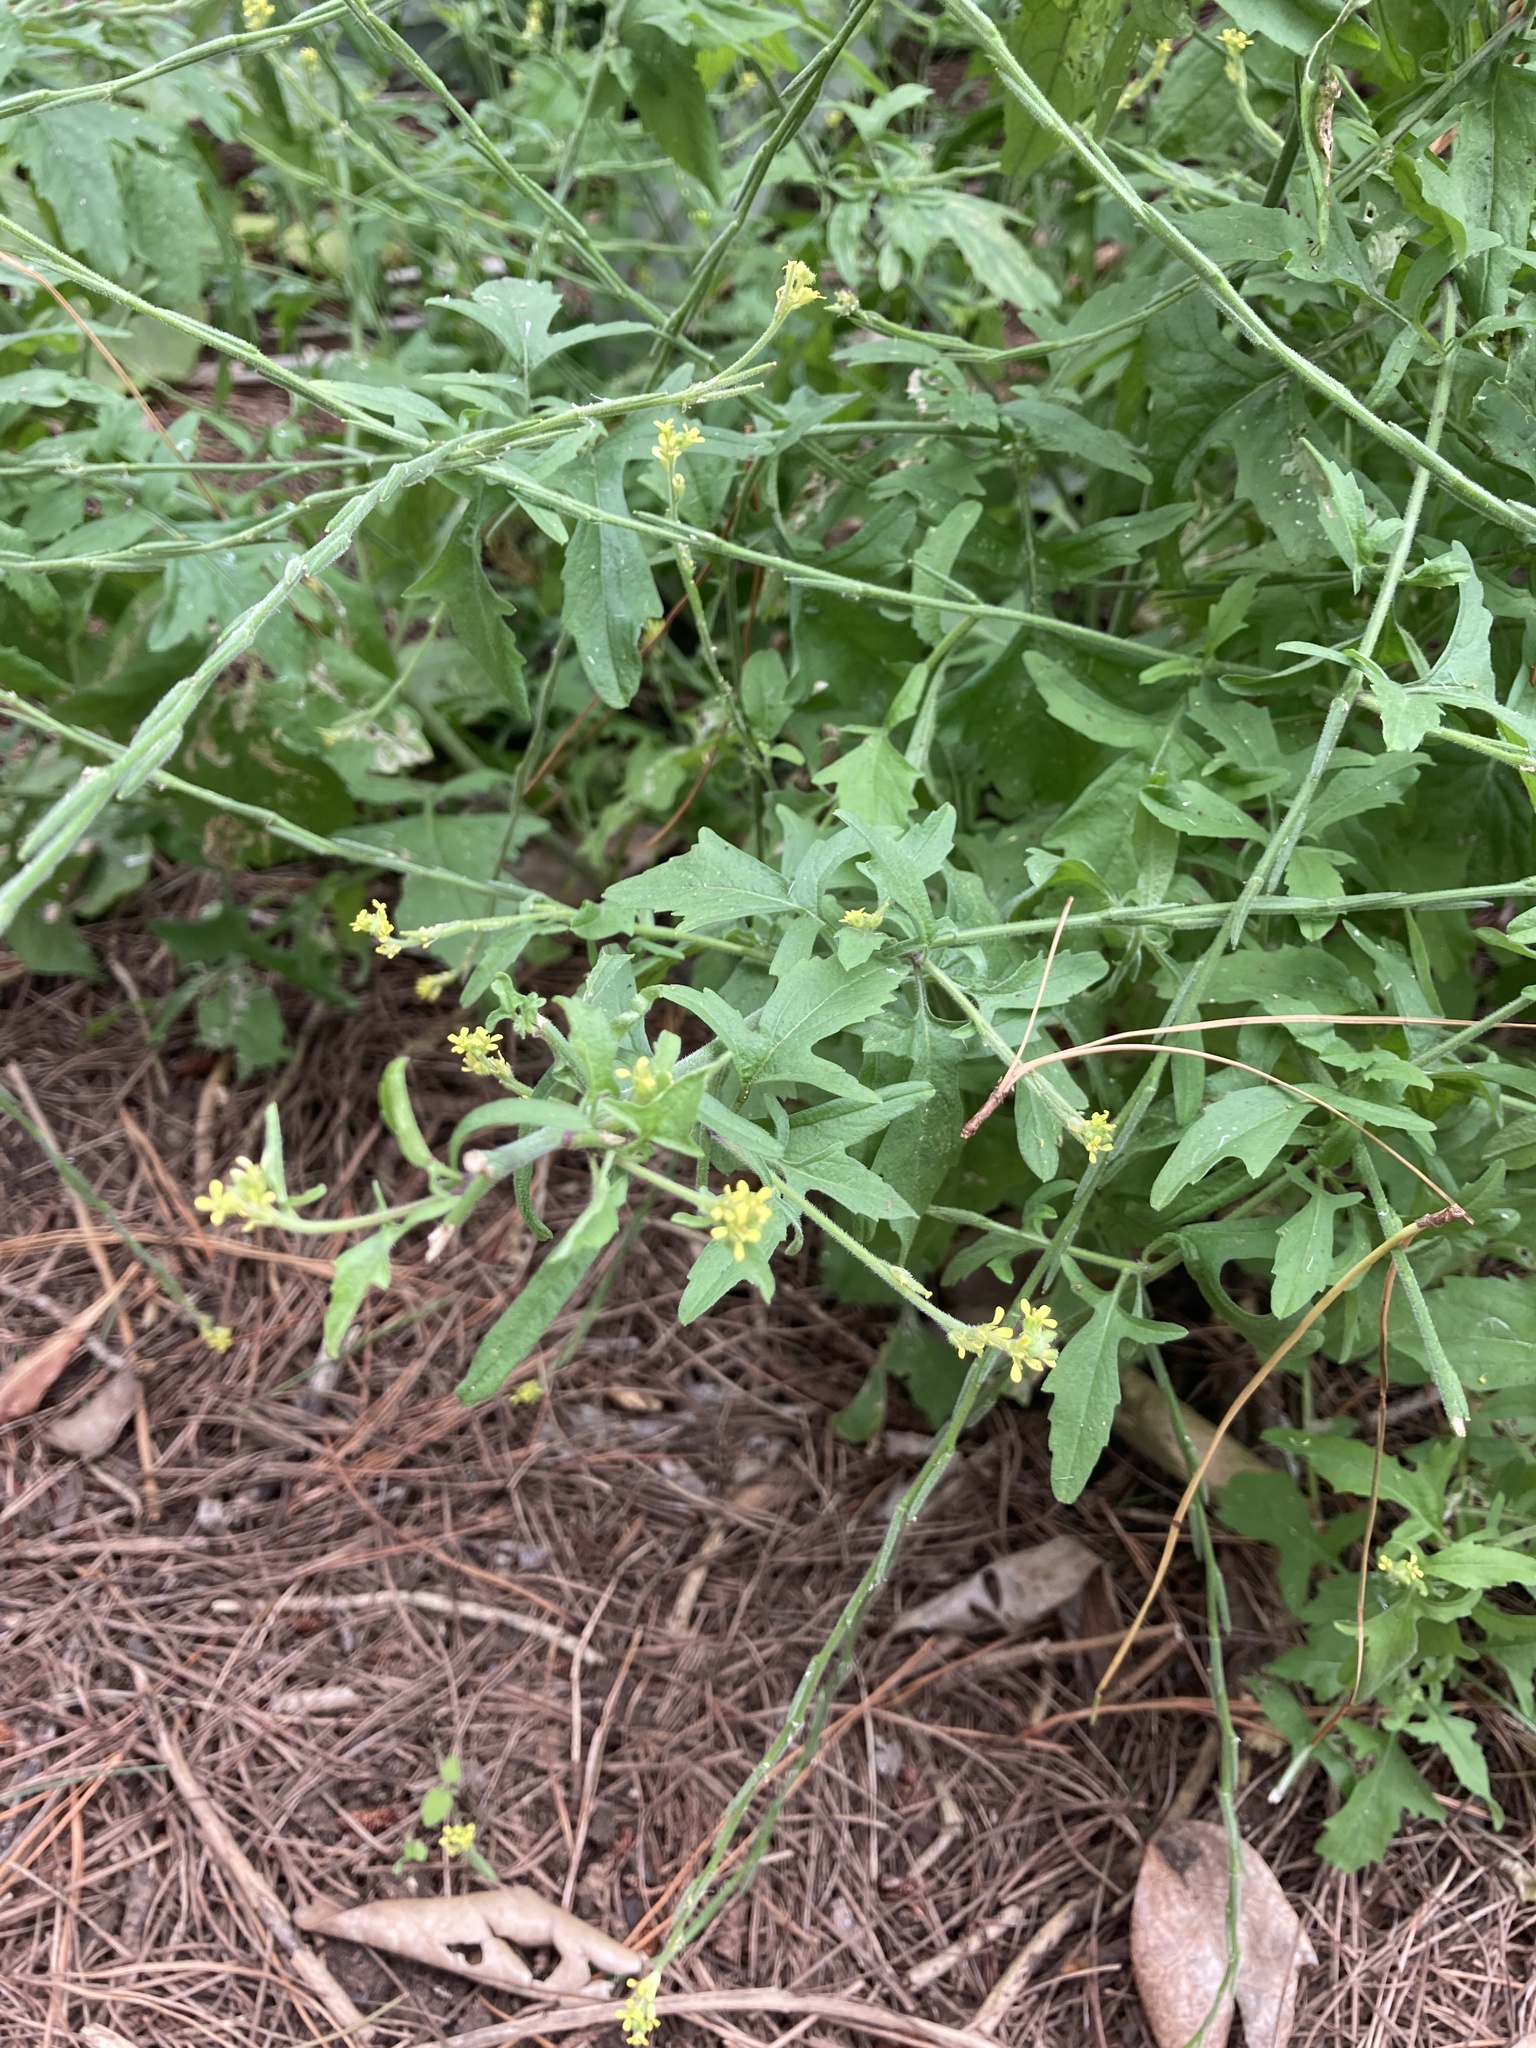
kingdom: Plantae
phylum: Tracheophyta
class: Magnoliopsida
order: Brassicales
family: Brassicaceae
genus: Sisymbrium
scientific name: Sisymbrium officinale
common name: Hedge mustard
